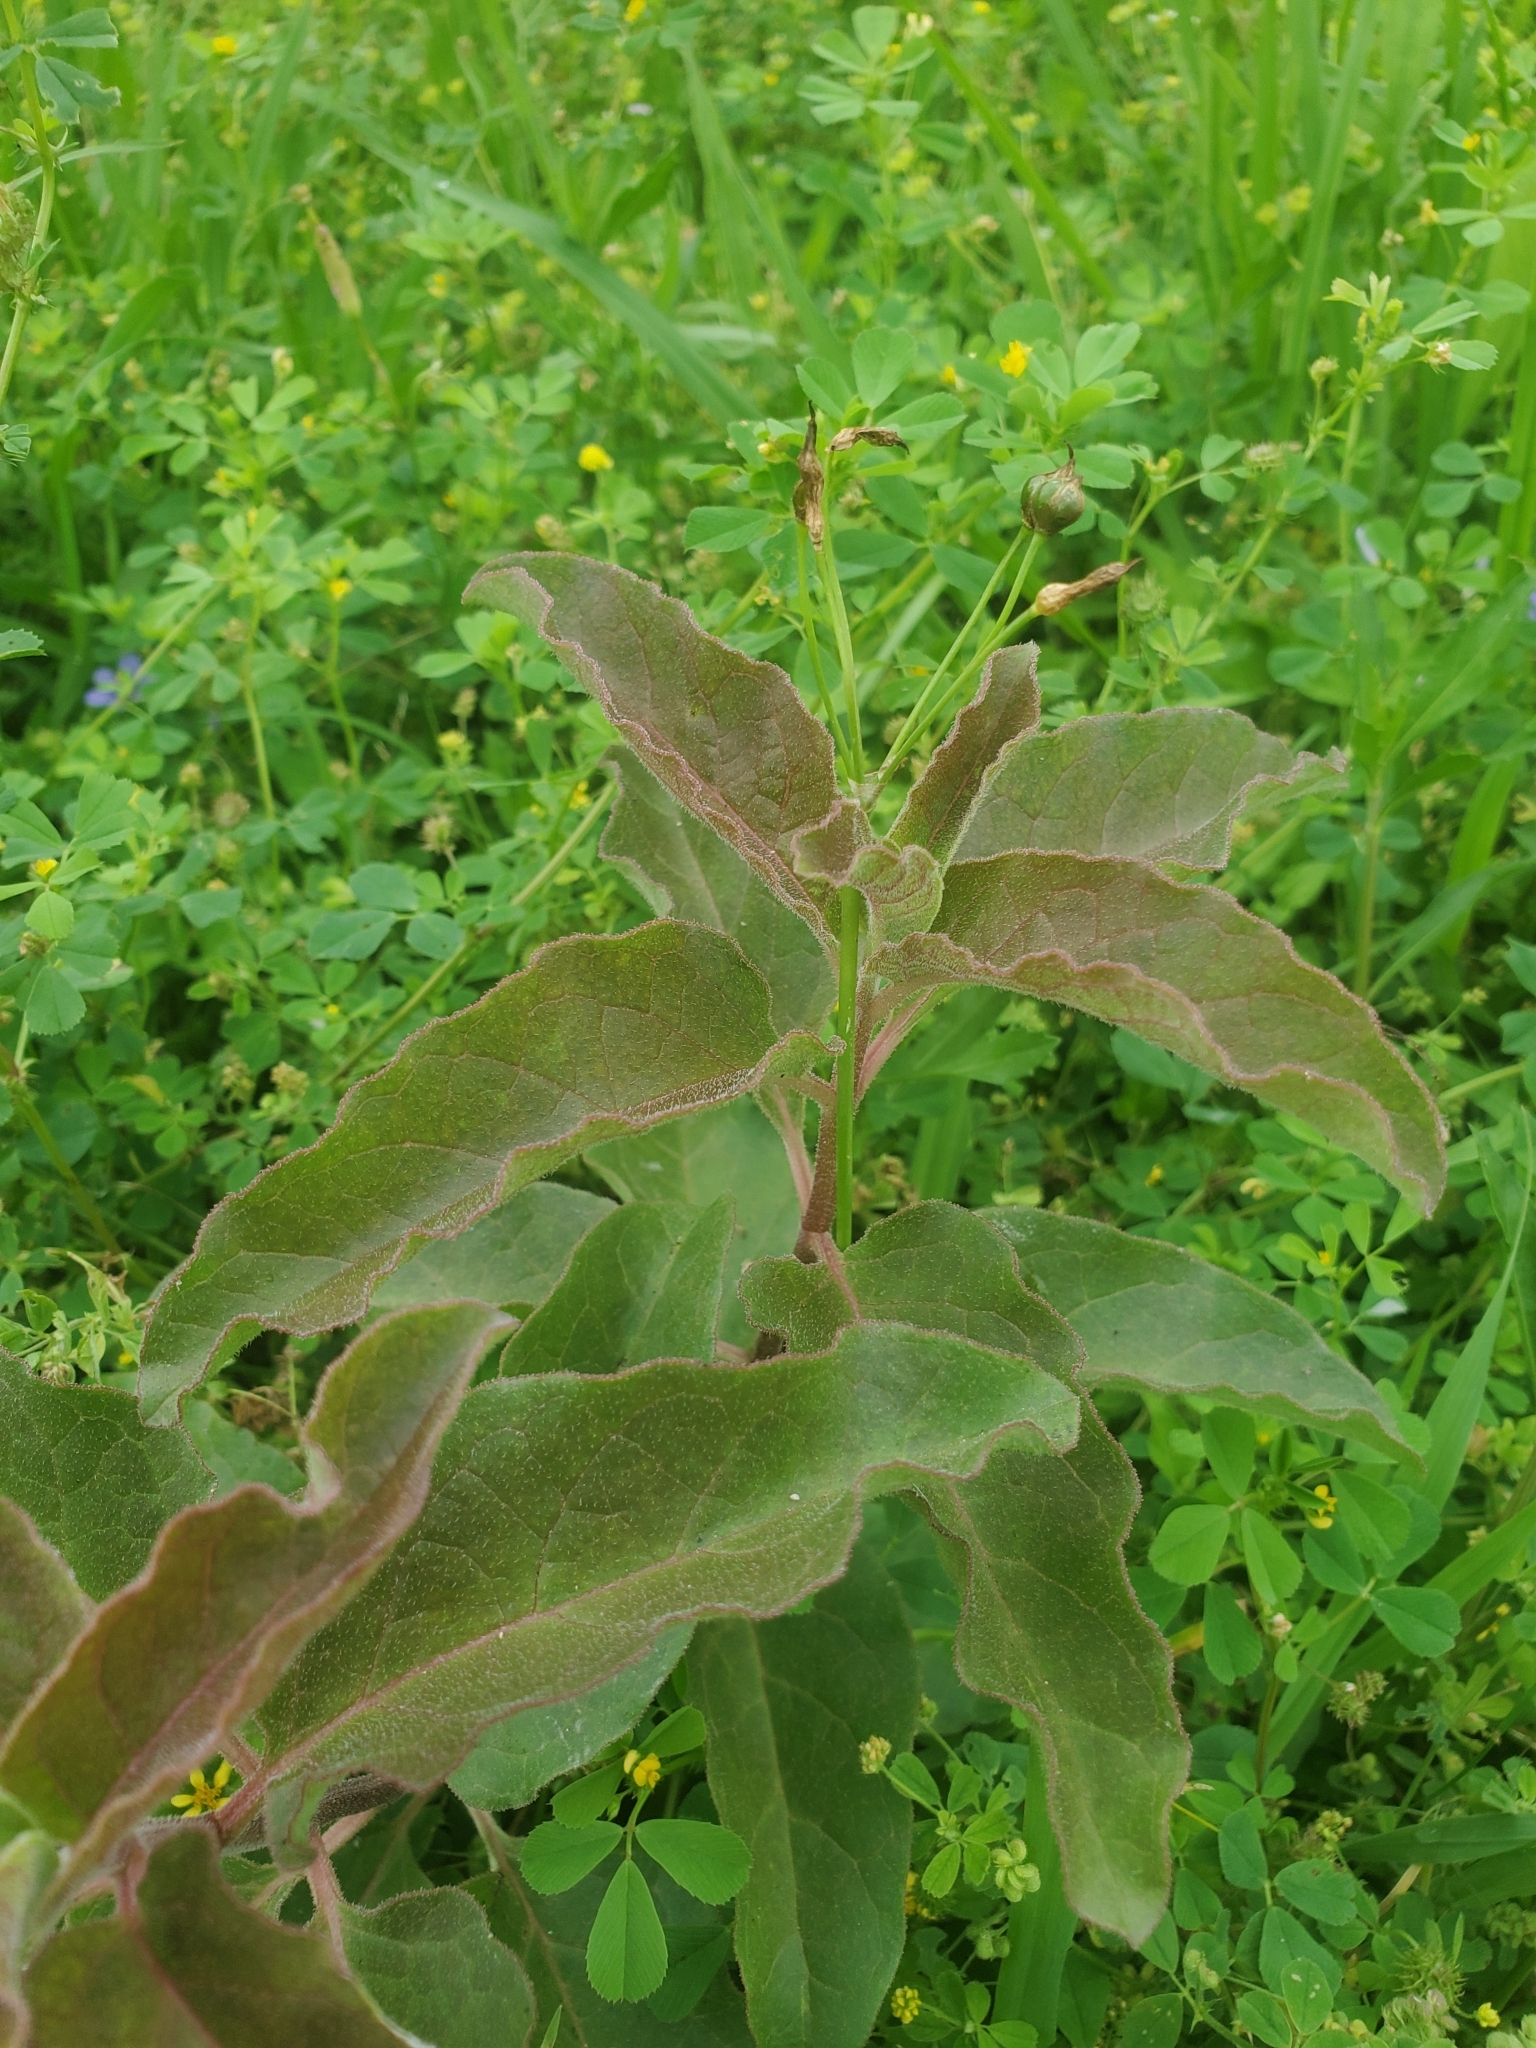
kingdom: Plantae
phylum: Tracheophyta
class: Magnoliopsida
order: Gentianales
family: Apocynaceae
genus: Asclepias
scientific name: Asclepias oenotheroides
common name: Zizotes milkweed
